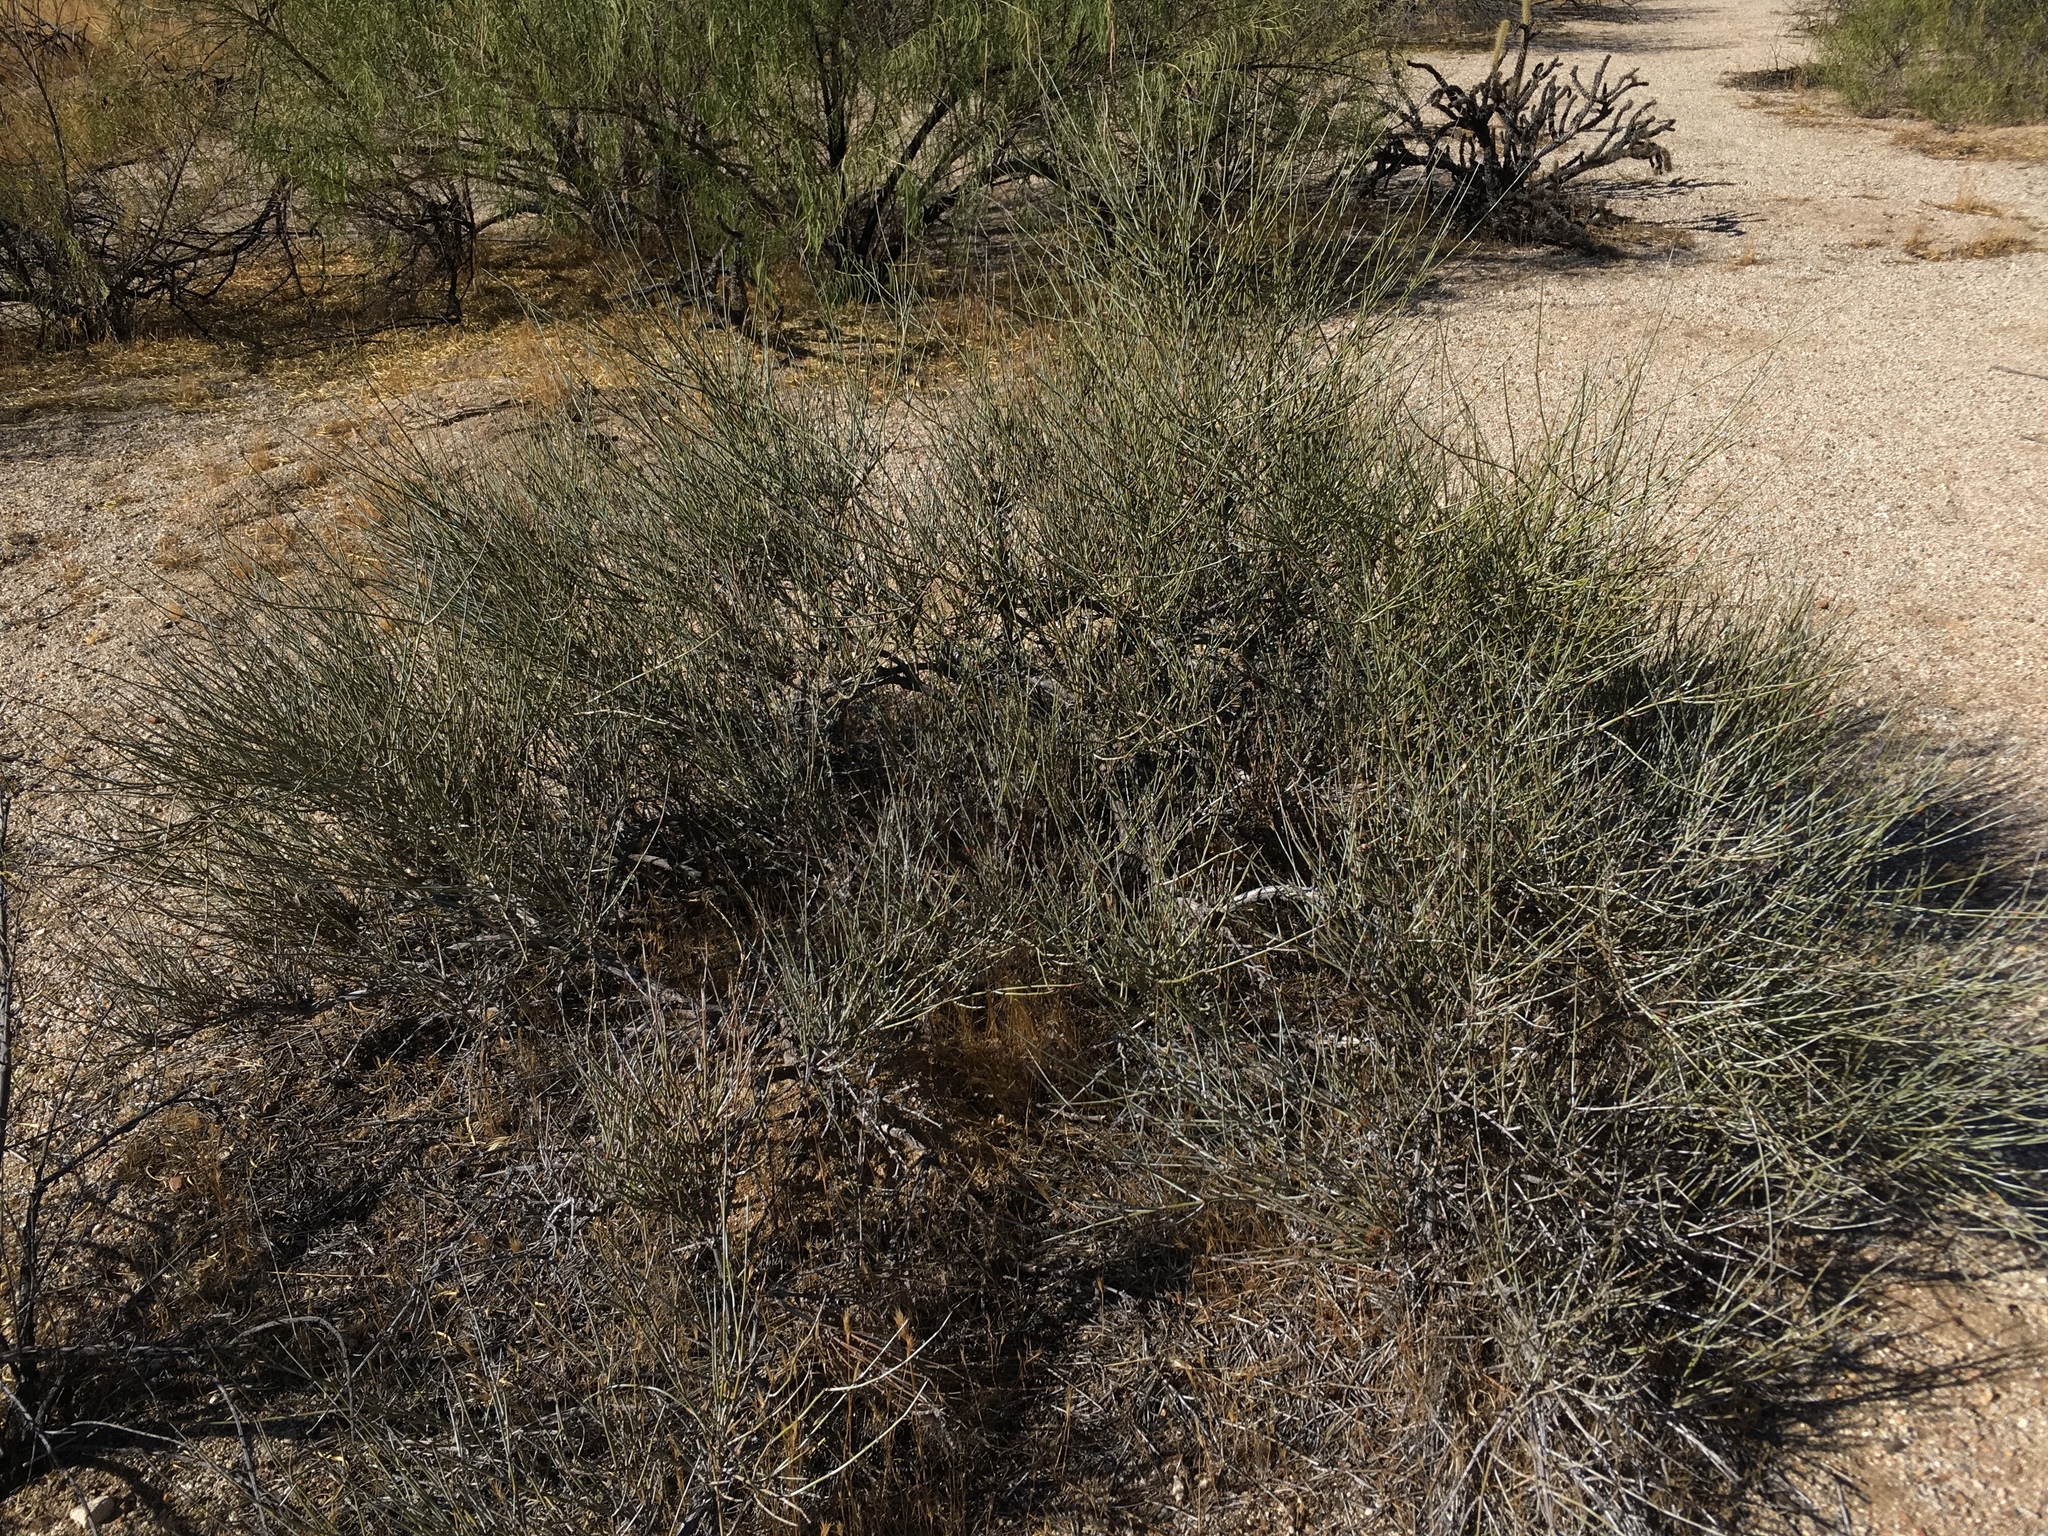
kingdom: Plantae
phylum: Tracheophyta
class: Gnetopsida
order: Ephedrales
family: Ephedraceae
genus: Ephedra
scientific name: Ephedra californica
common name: California ephedra
